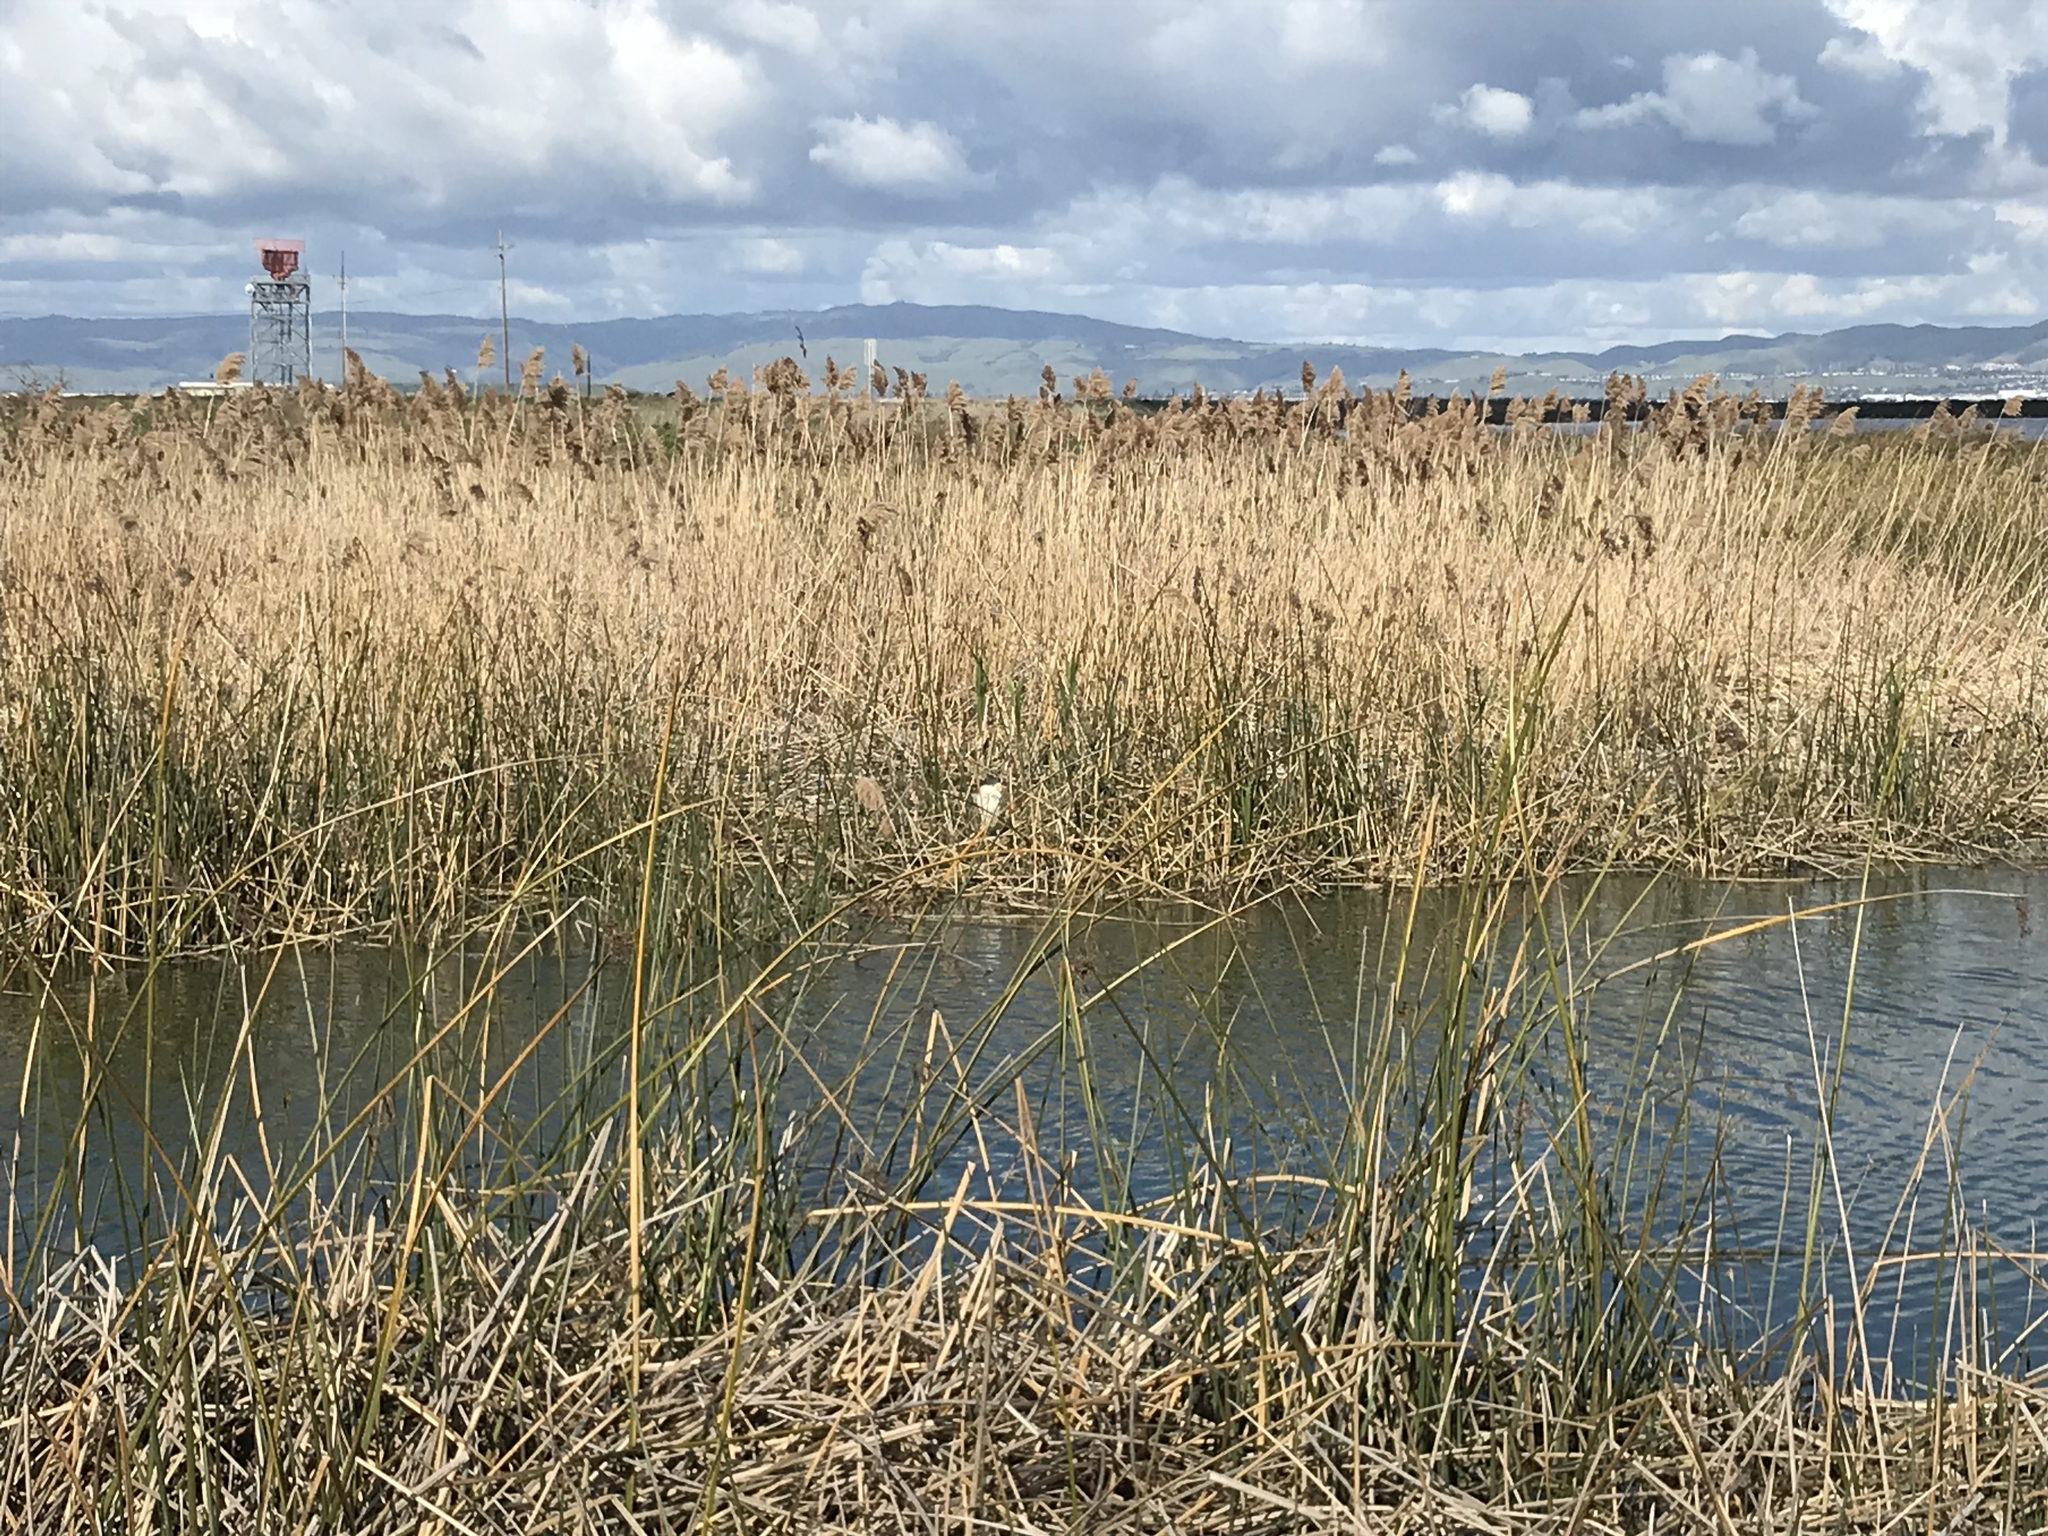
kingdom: Animalia
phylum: Chordata
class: Aves
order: Pelecaniformes
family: Ardeidae
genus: Nycticorax
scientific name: Nycticorax nycticorax
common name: Black-crowned night heron
